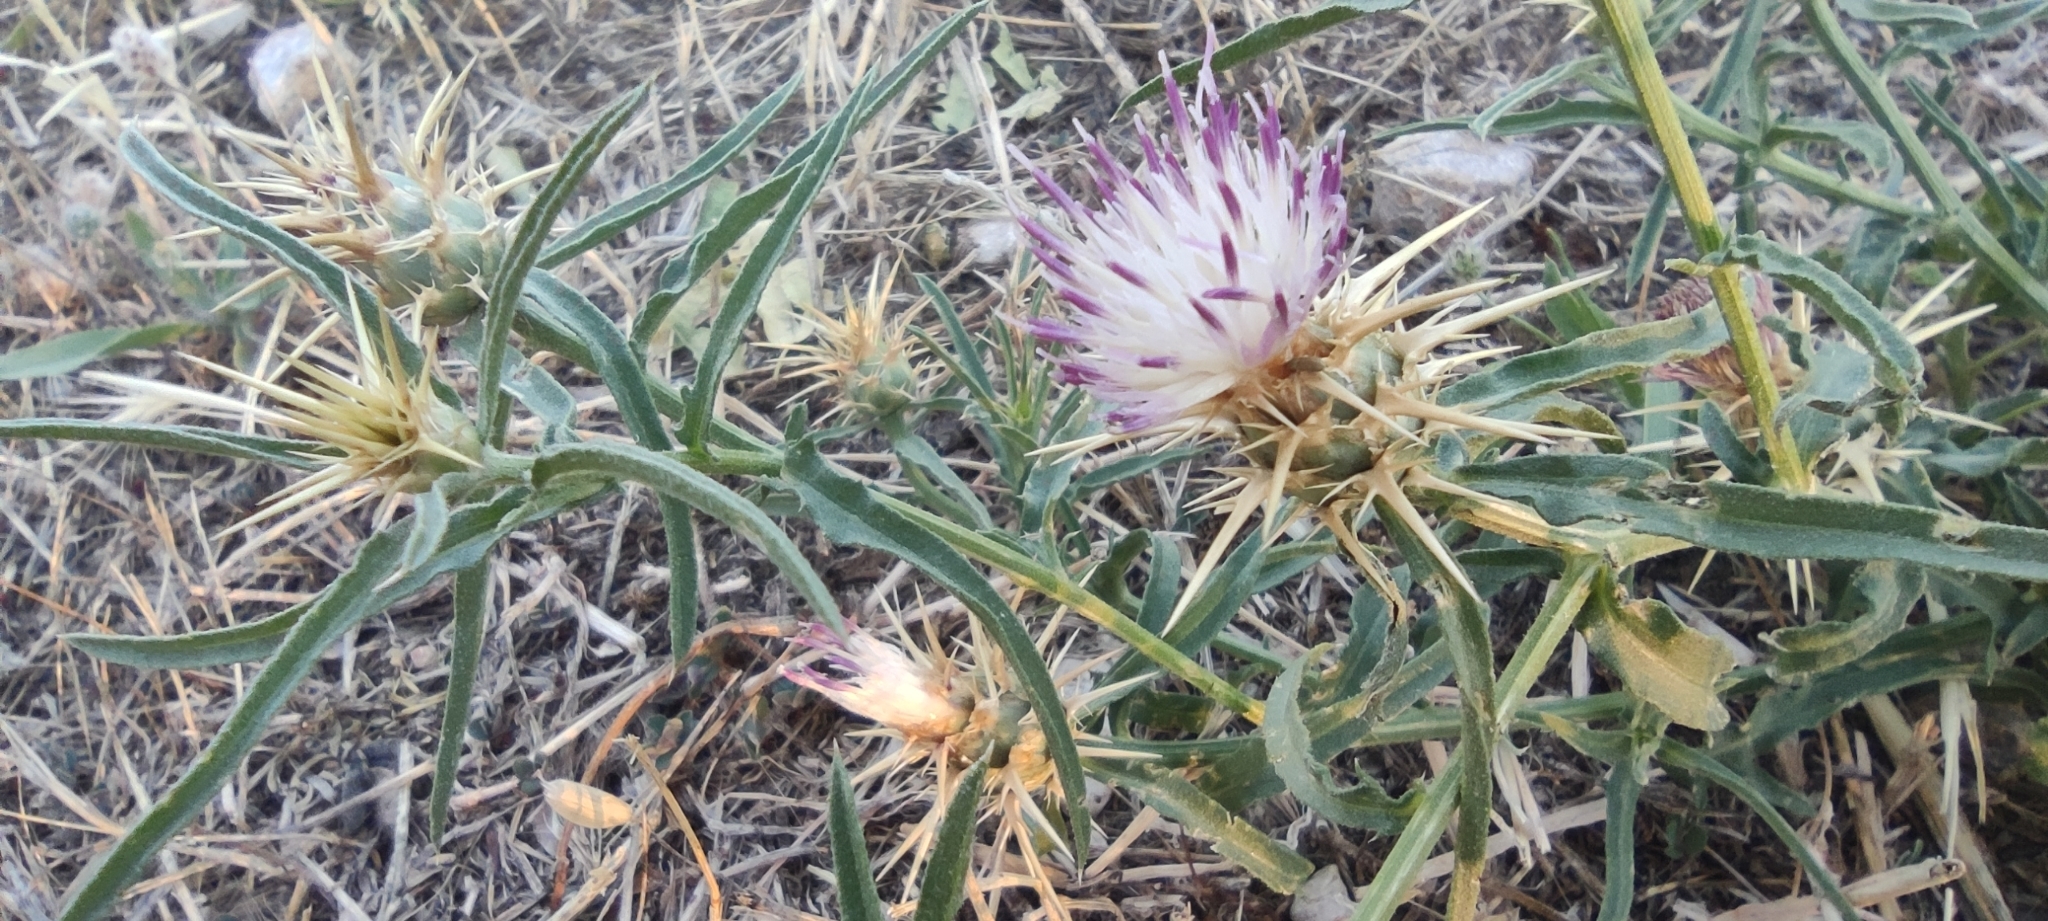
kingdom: Plantae
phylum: Tracheophyta
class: Magnoliopsida
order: Asterales
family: Asteraceae
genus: Centaurea
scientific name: Centaurea calcitrapa
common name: Red star-thistle
